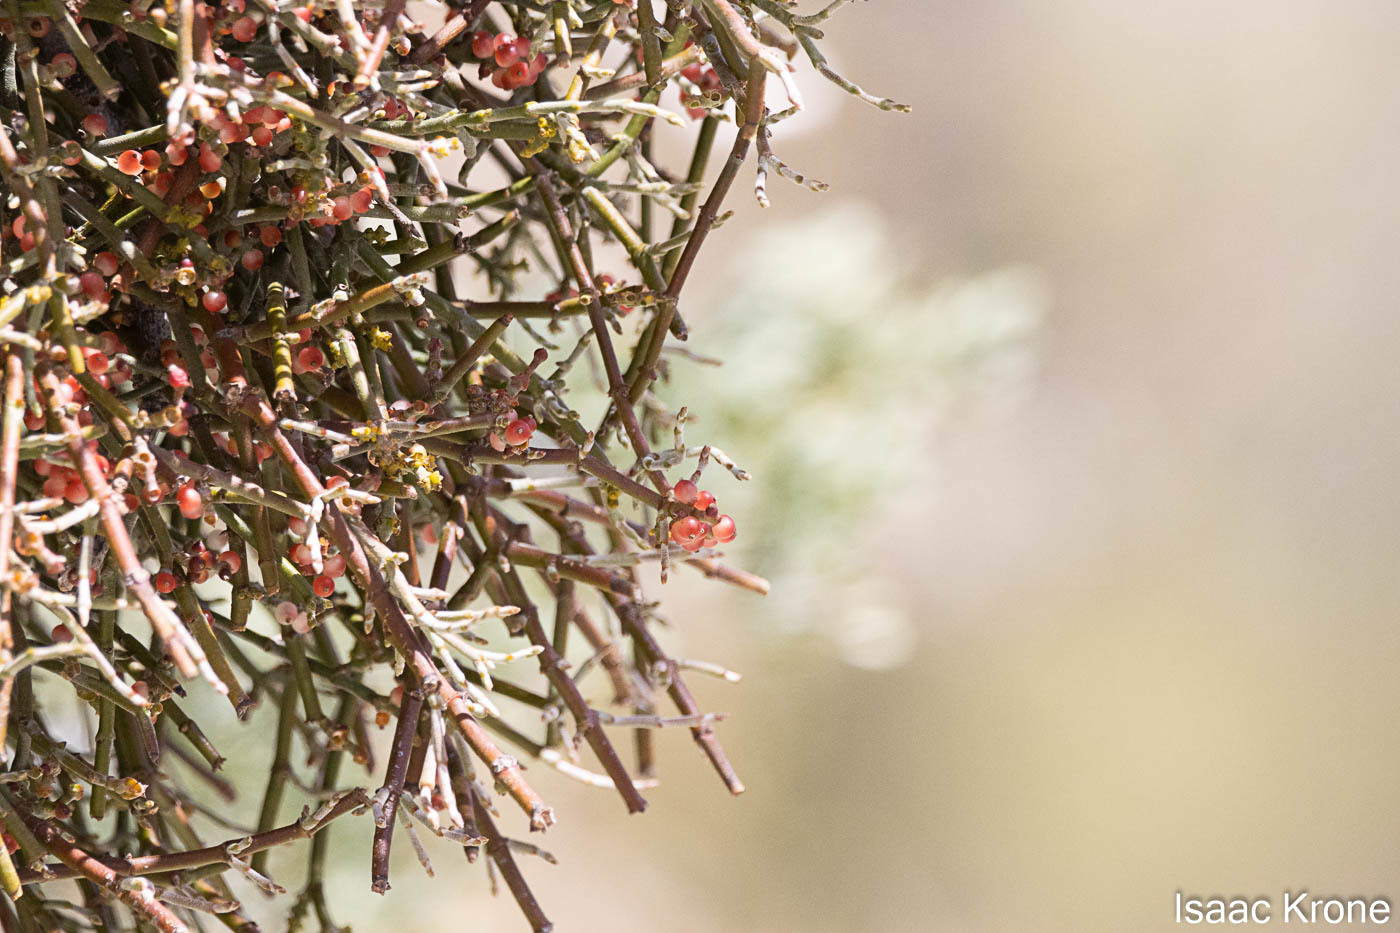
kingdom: Plantae
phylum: Tracheophyta
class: Magnoliopsida
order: Santalales
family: Viscaceae
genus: Phoradendron
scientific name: Phoradendron californicum
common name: Acacia mistletoe
